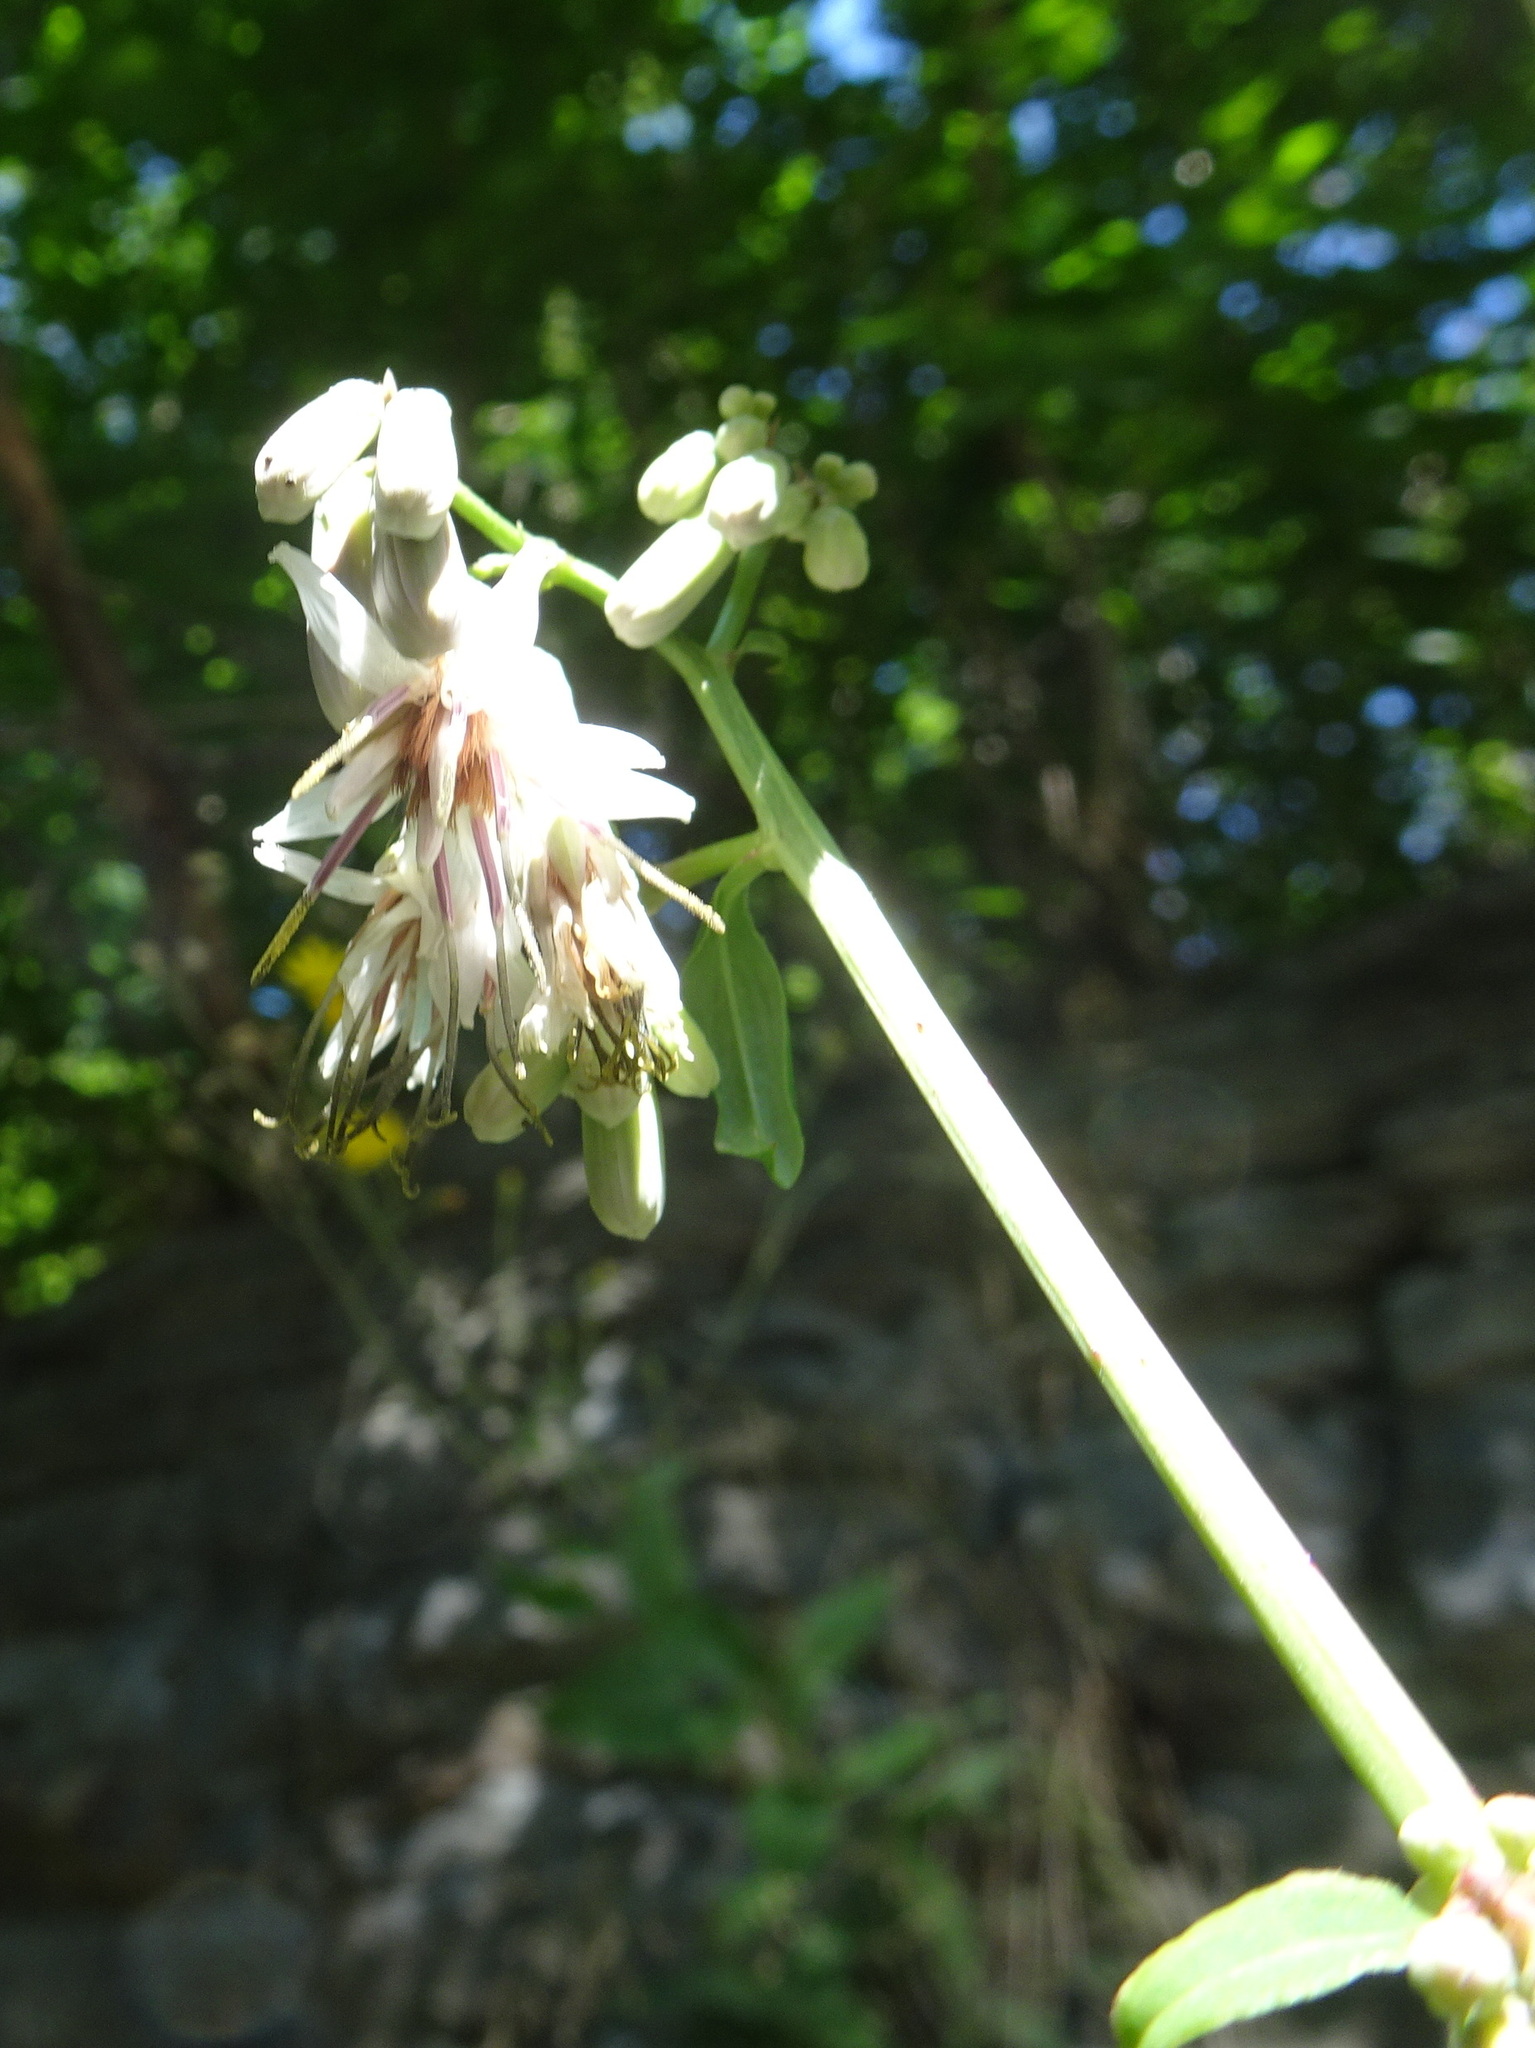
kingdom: Plantae
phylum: Tracheophyta
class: Magnoliopsida
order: Asterales
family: Asteraceae
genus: Nabalus
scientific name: Nabalus albus
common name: White rattlesnakeroot
